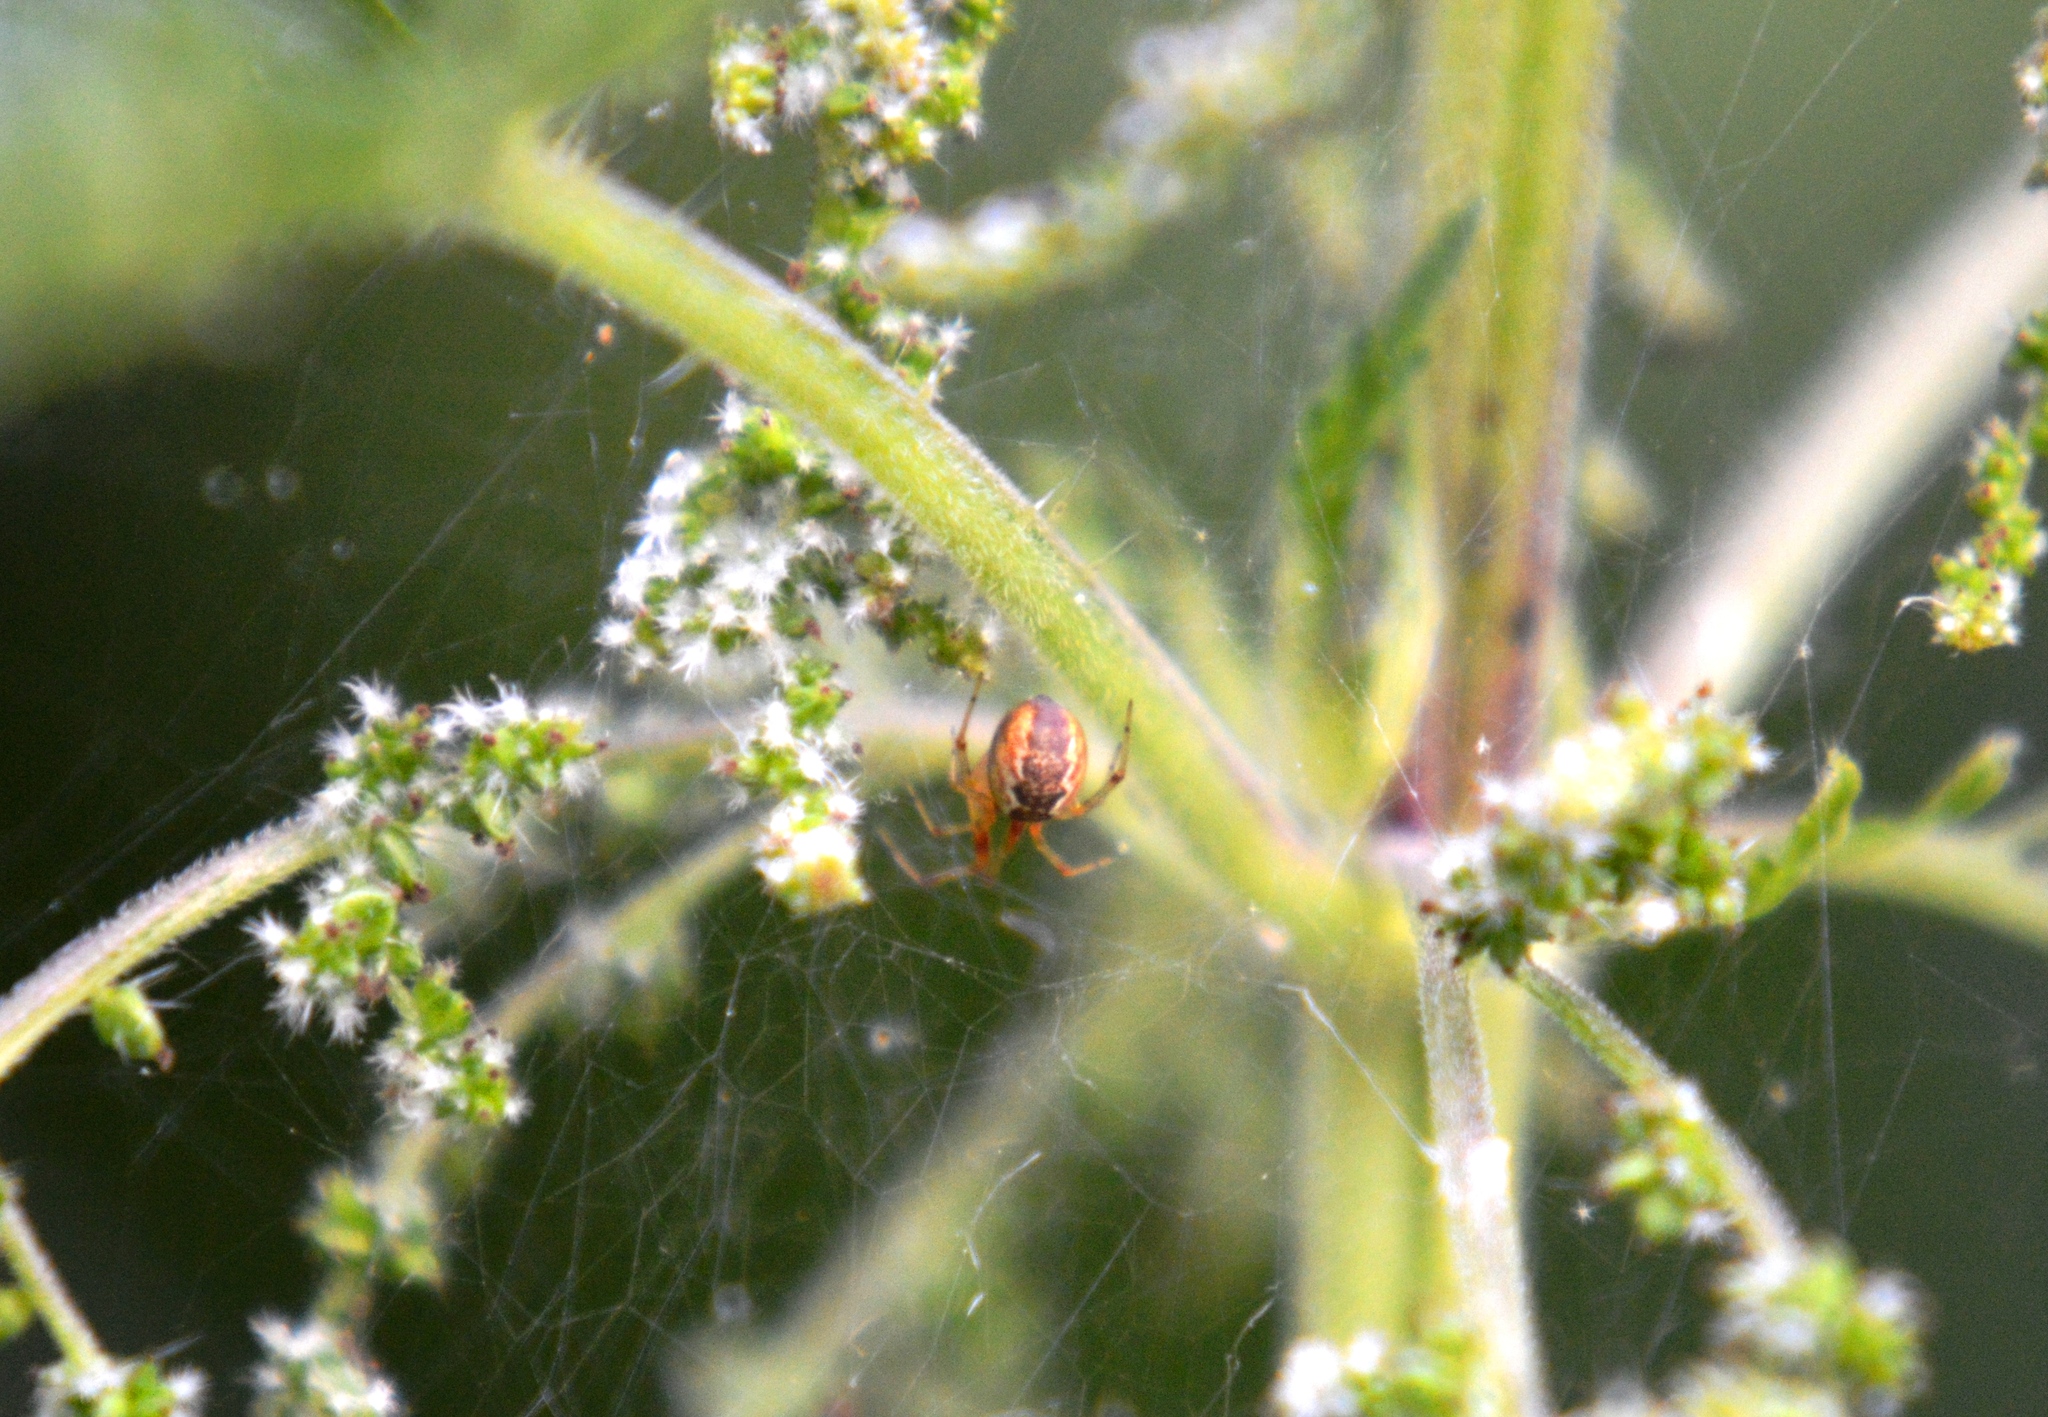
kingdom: Animalia
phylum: Arthropoda
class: Arachnida
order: Araneae
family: Theridiidae
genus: Anelosimus
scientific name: Anelosimus vittatus
